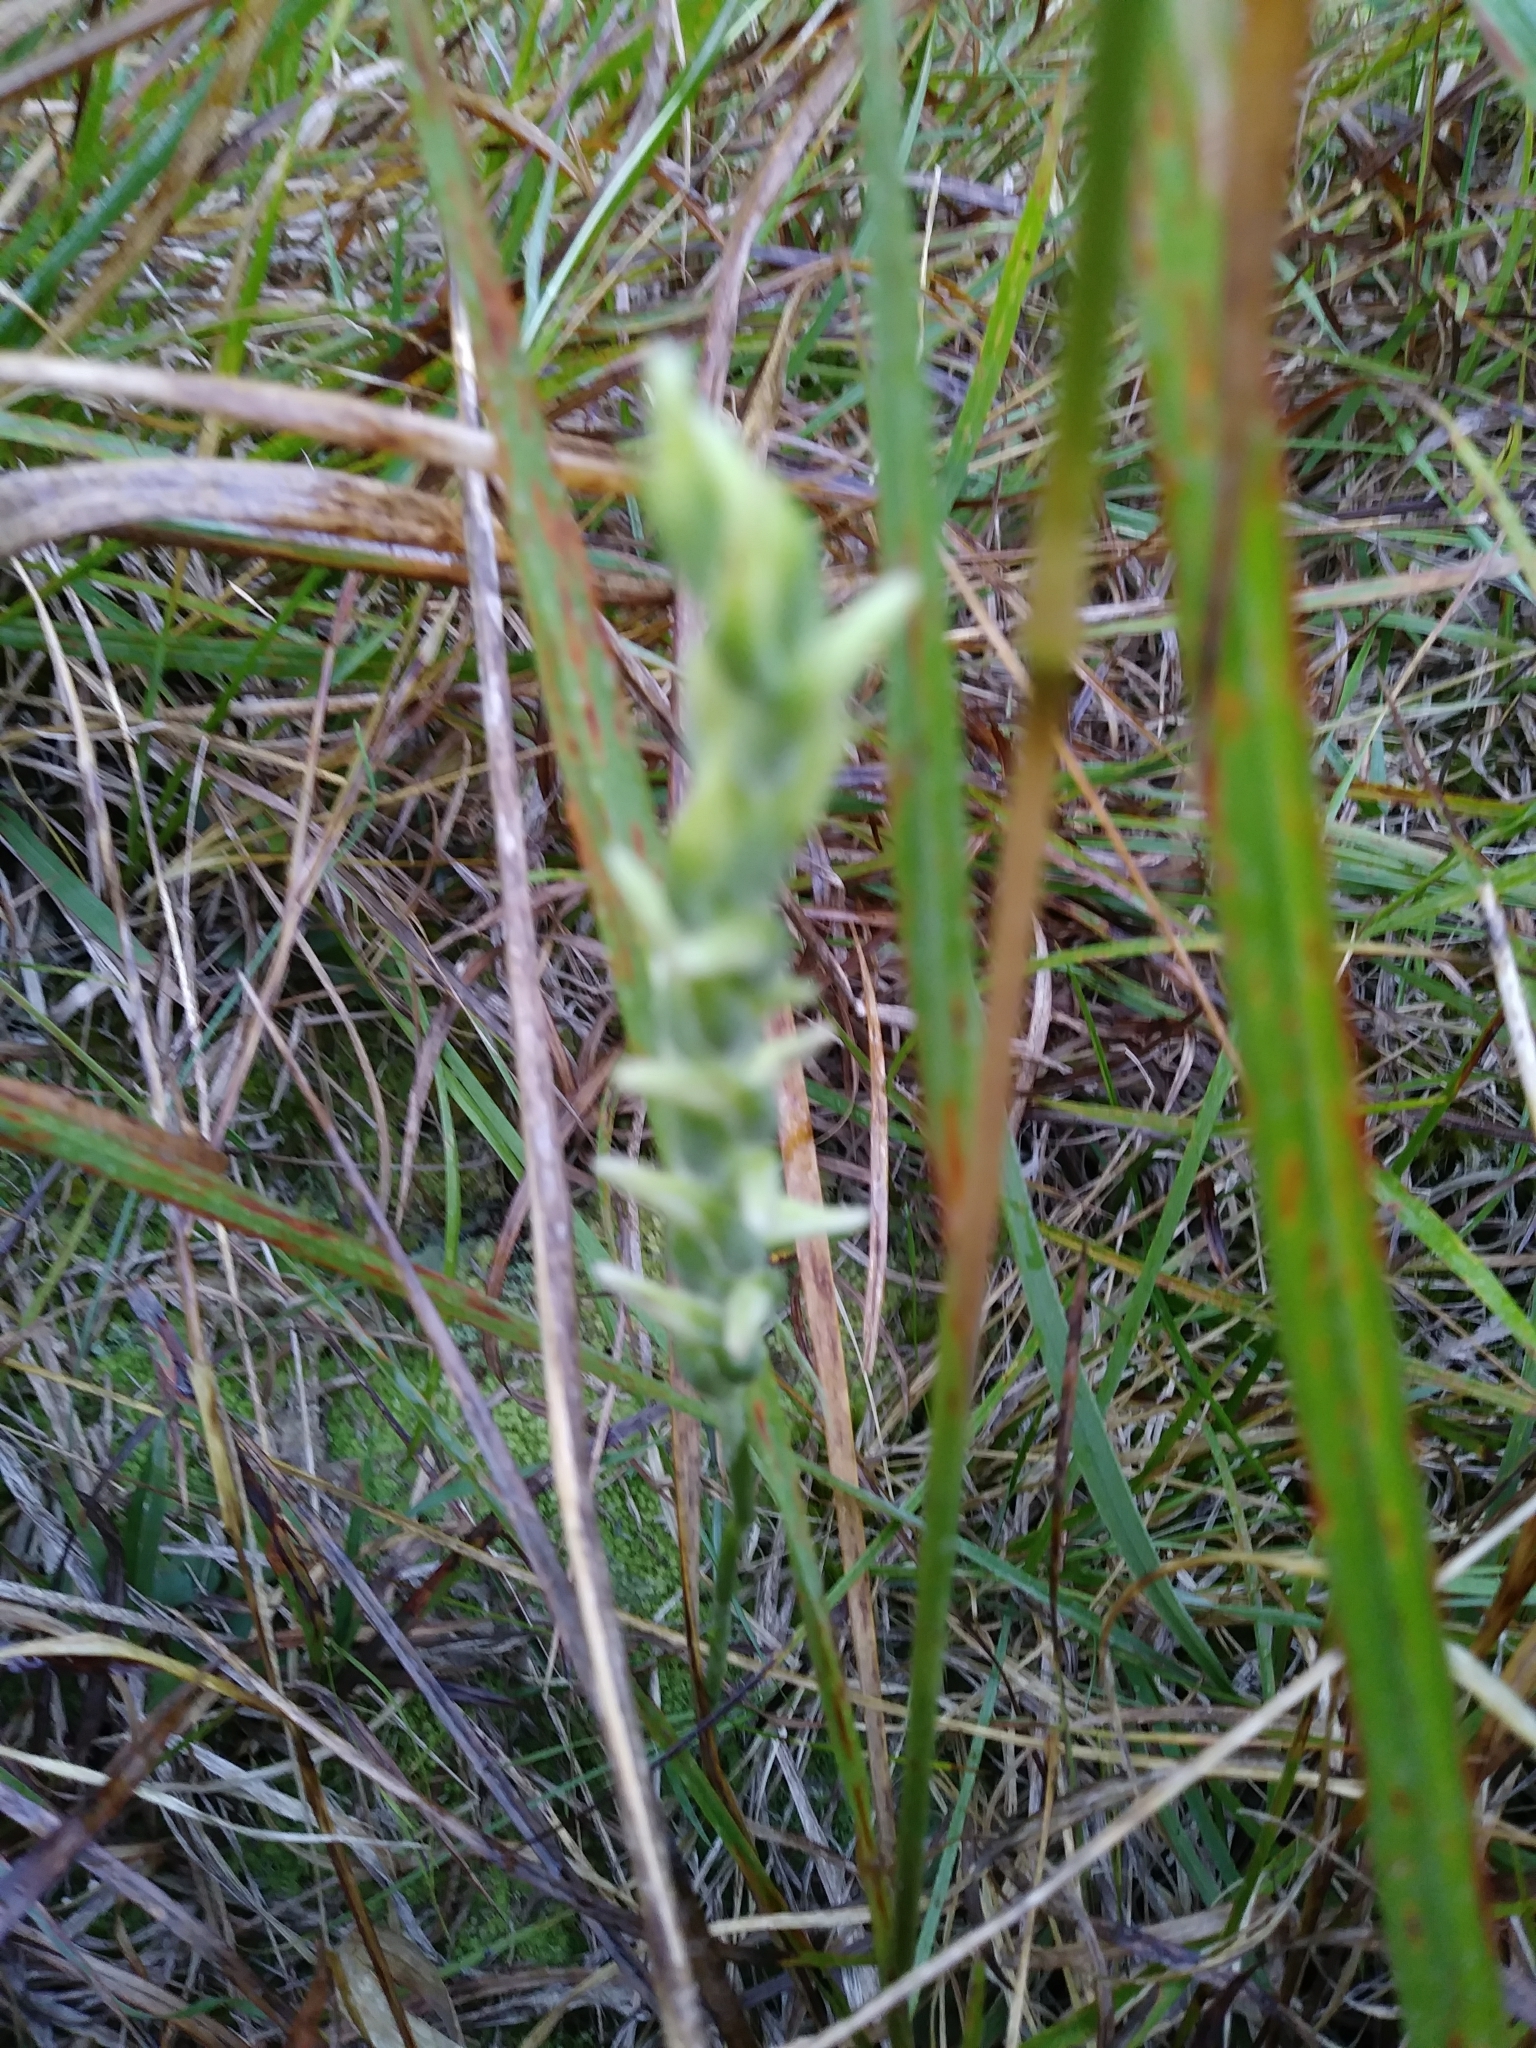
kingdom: Plantae
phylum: Tracheophyta
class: Liliopsida
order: Asparagales
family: Orchidaceae
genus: Spiranthes
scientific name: Spiranthes cernua
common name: Dropping ladies'-tresses
